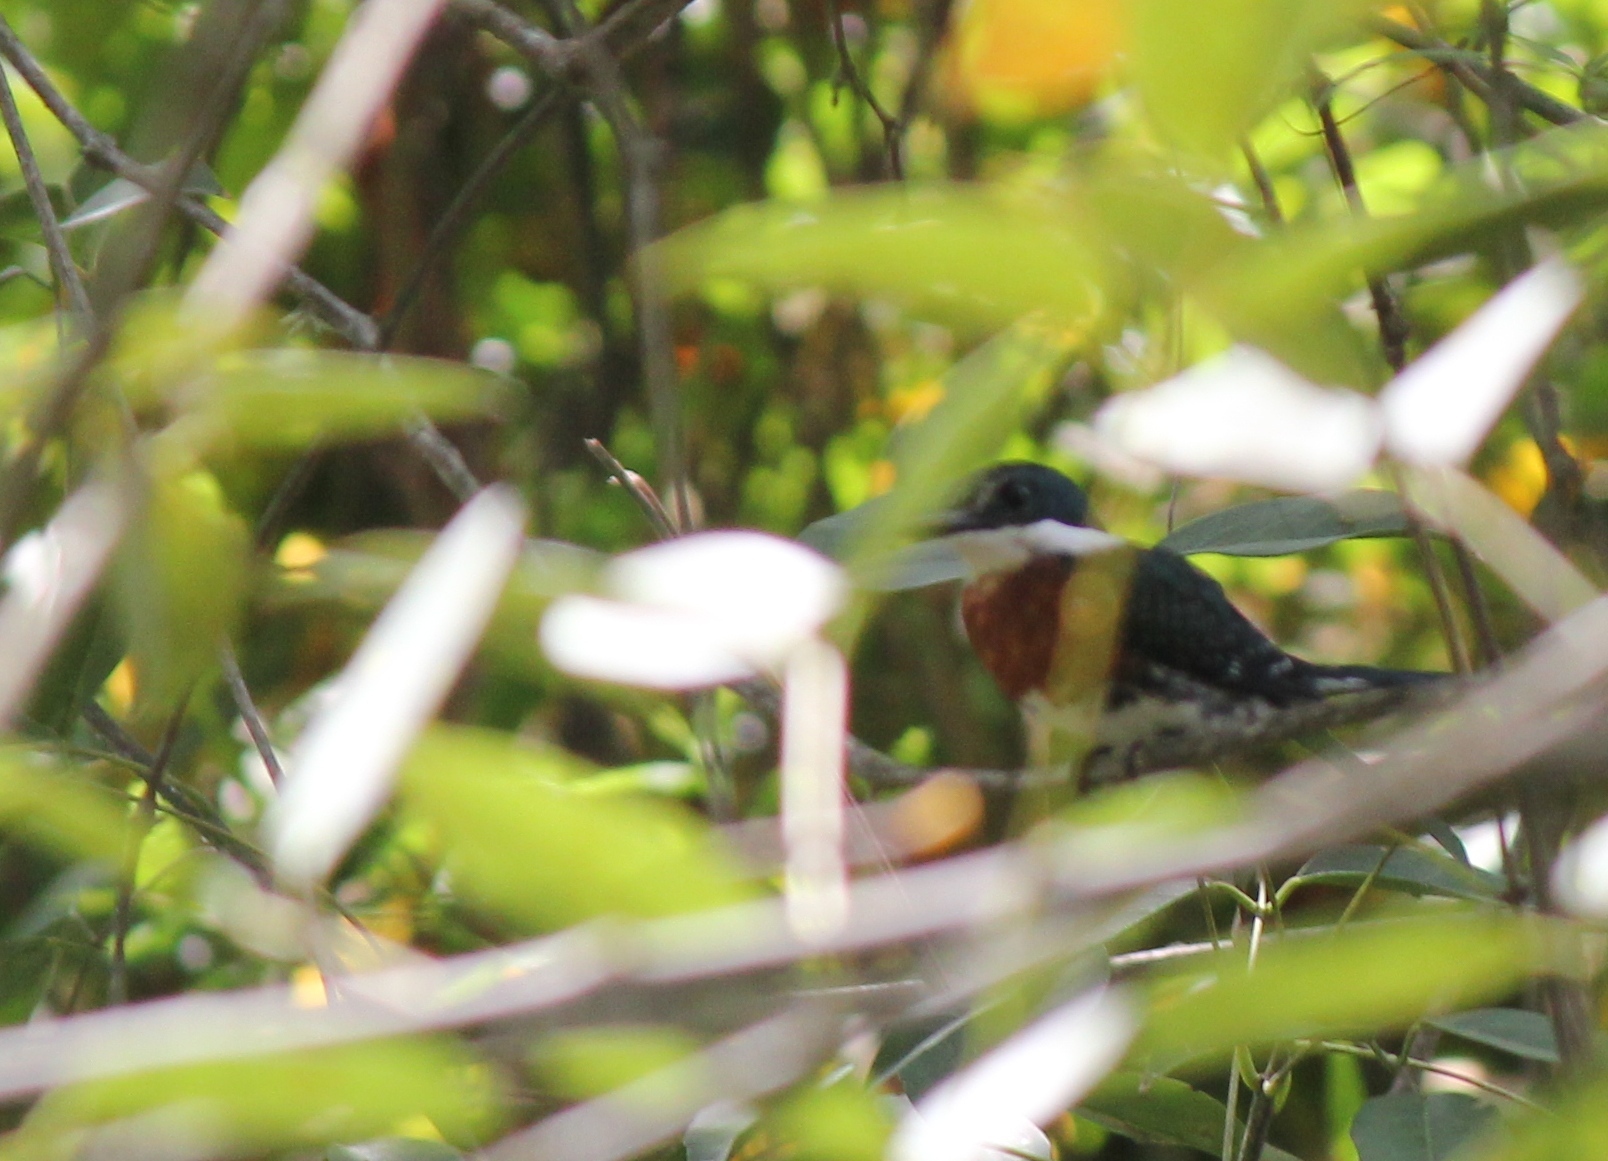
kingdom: Animalia
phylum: Chordata
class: Aves
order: Coraciiformes
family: Alcedinidae
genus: Chloroceryle
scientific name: Chloroceryle americana
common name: Green kingfisher
